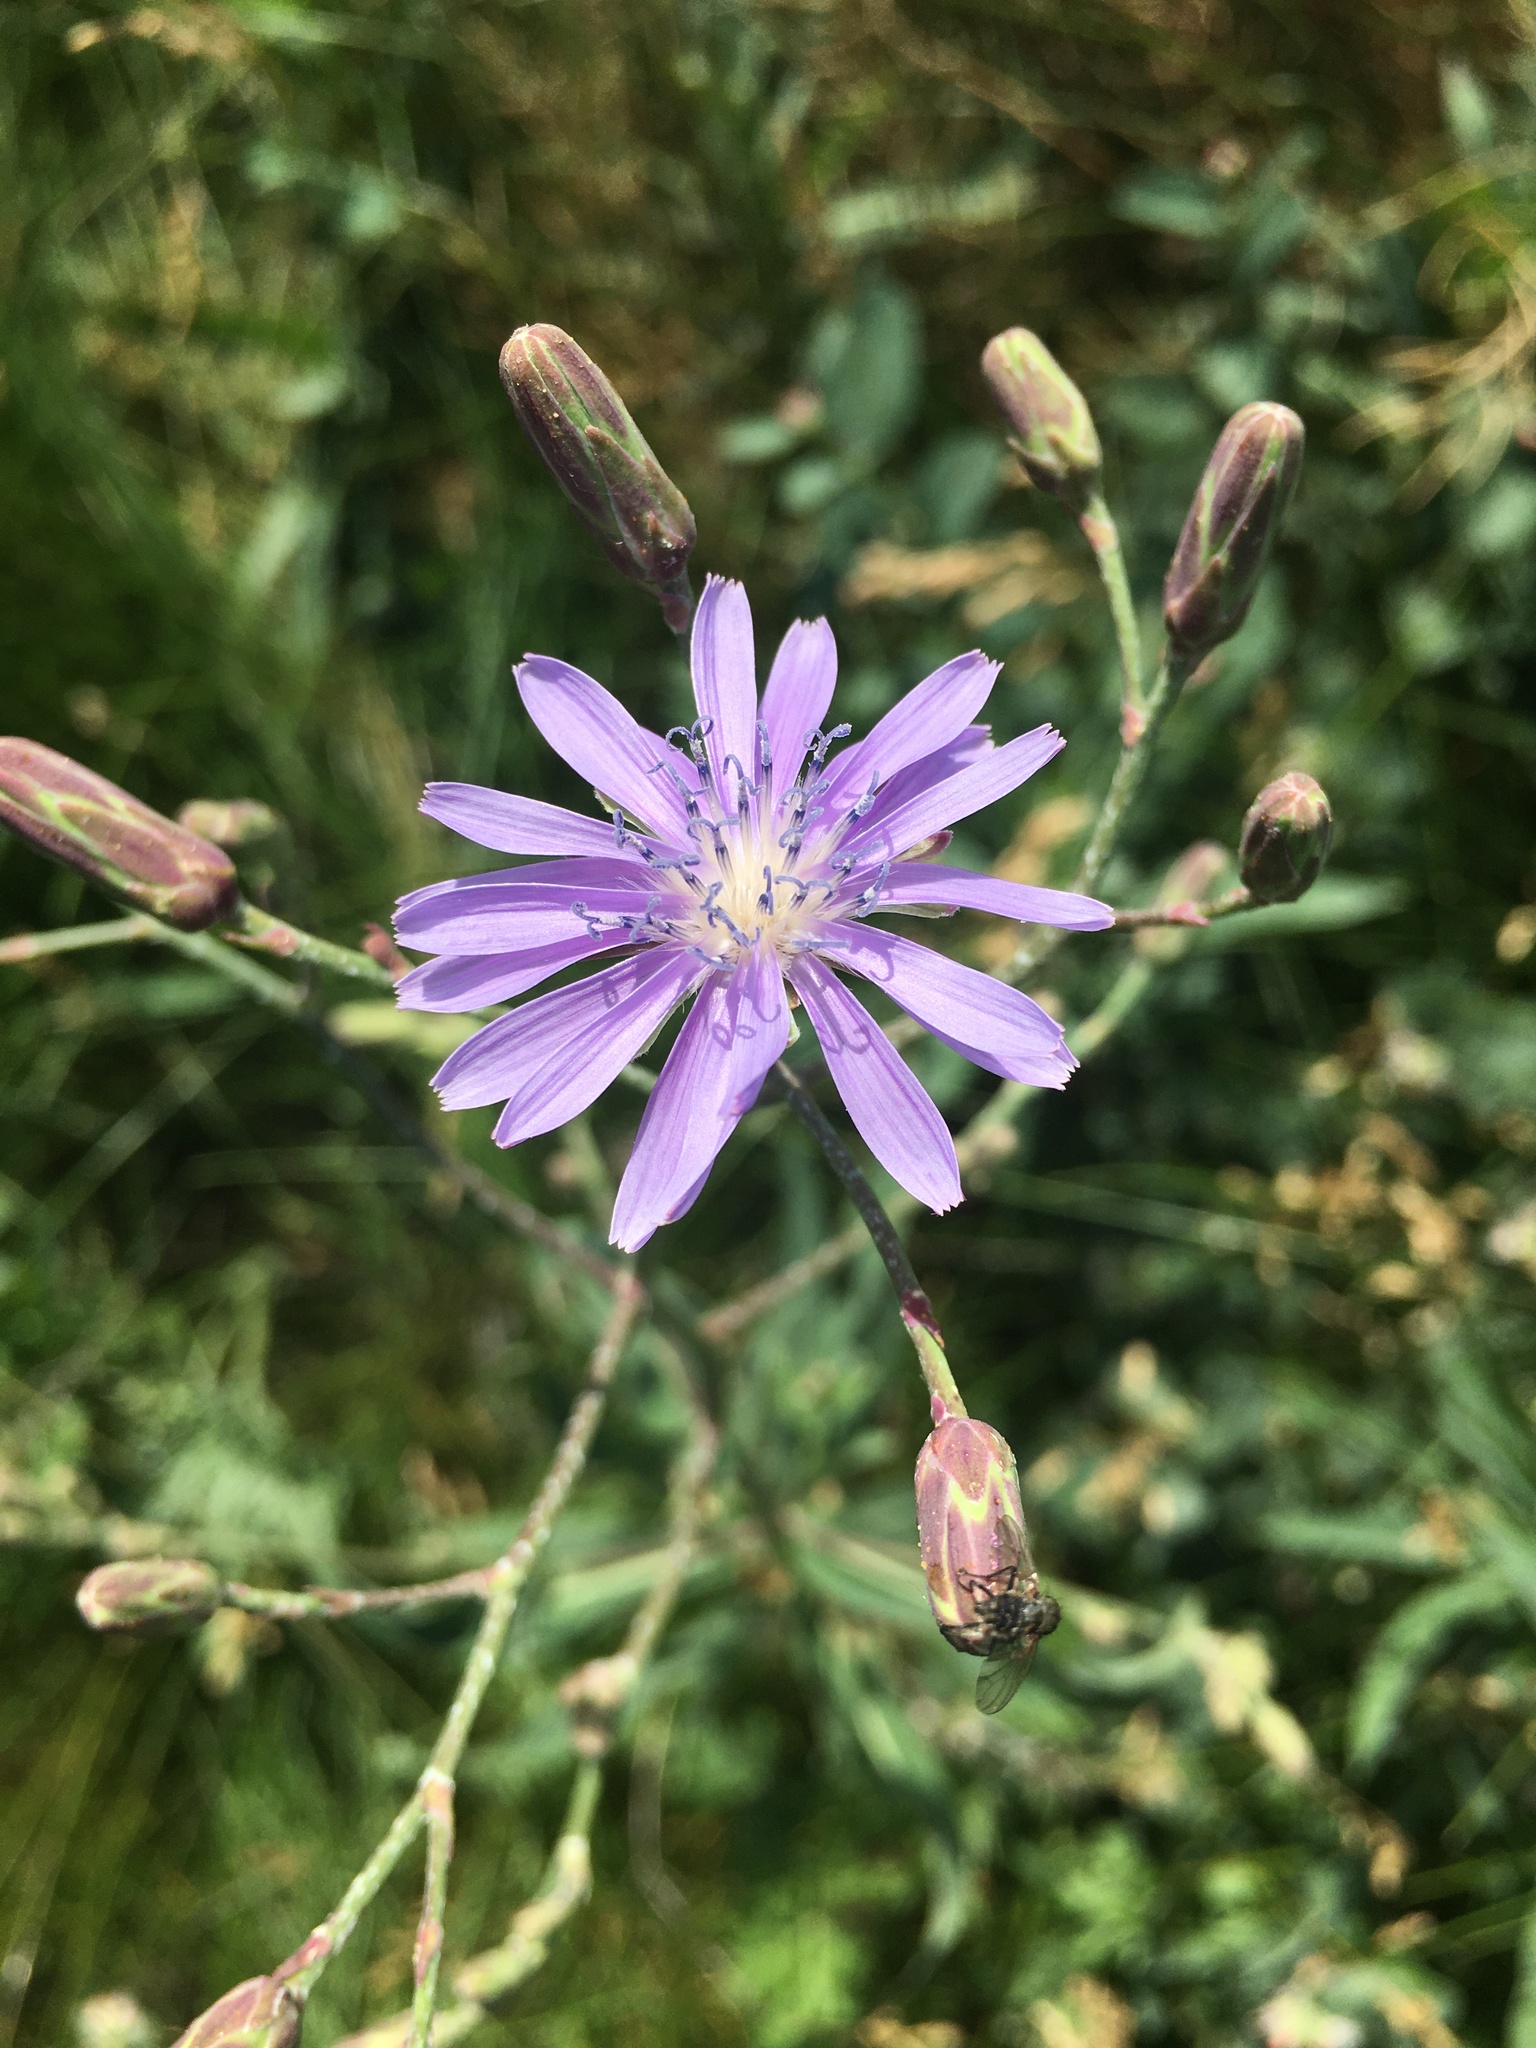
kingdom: Plantae
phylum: Tracheophyta
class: Magnoliopsida
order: Asterales
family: Asteraceae
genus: Lactuca
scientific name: Lactuca pulchella
